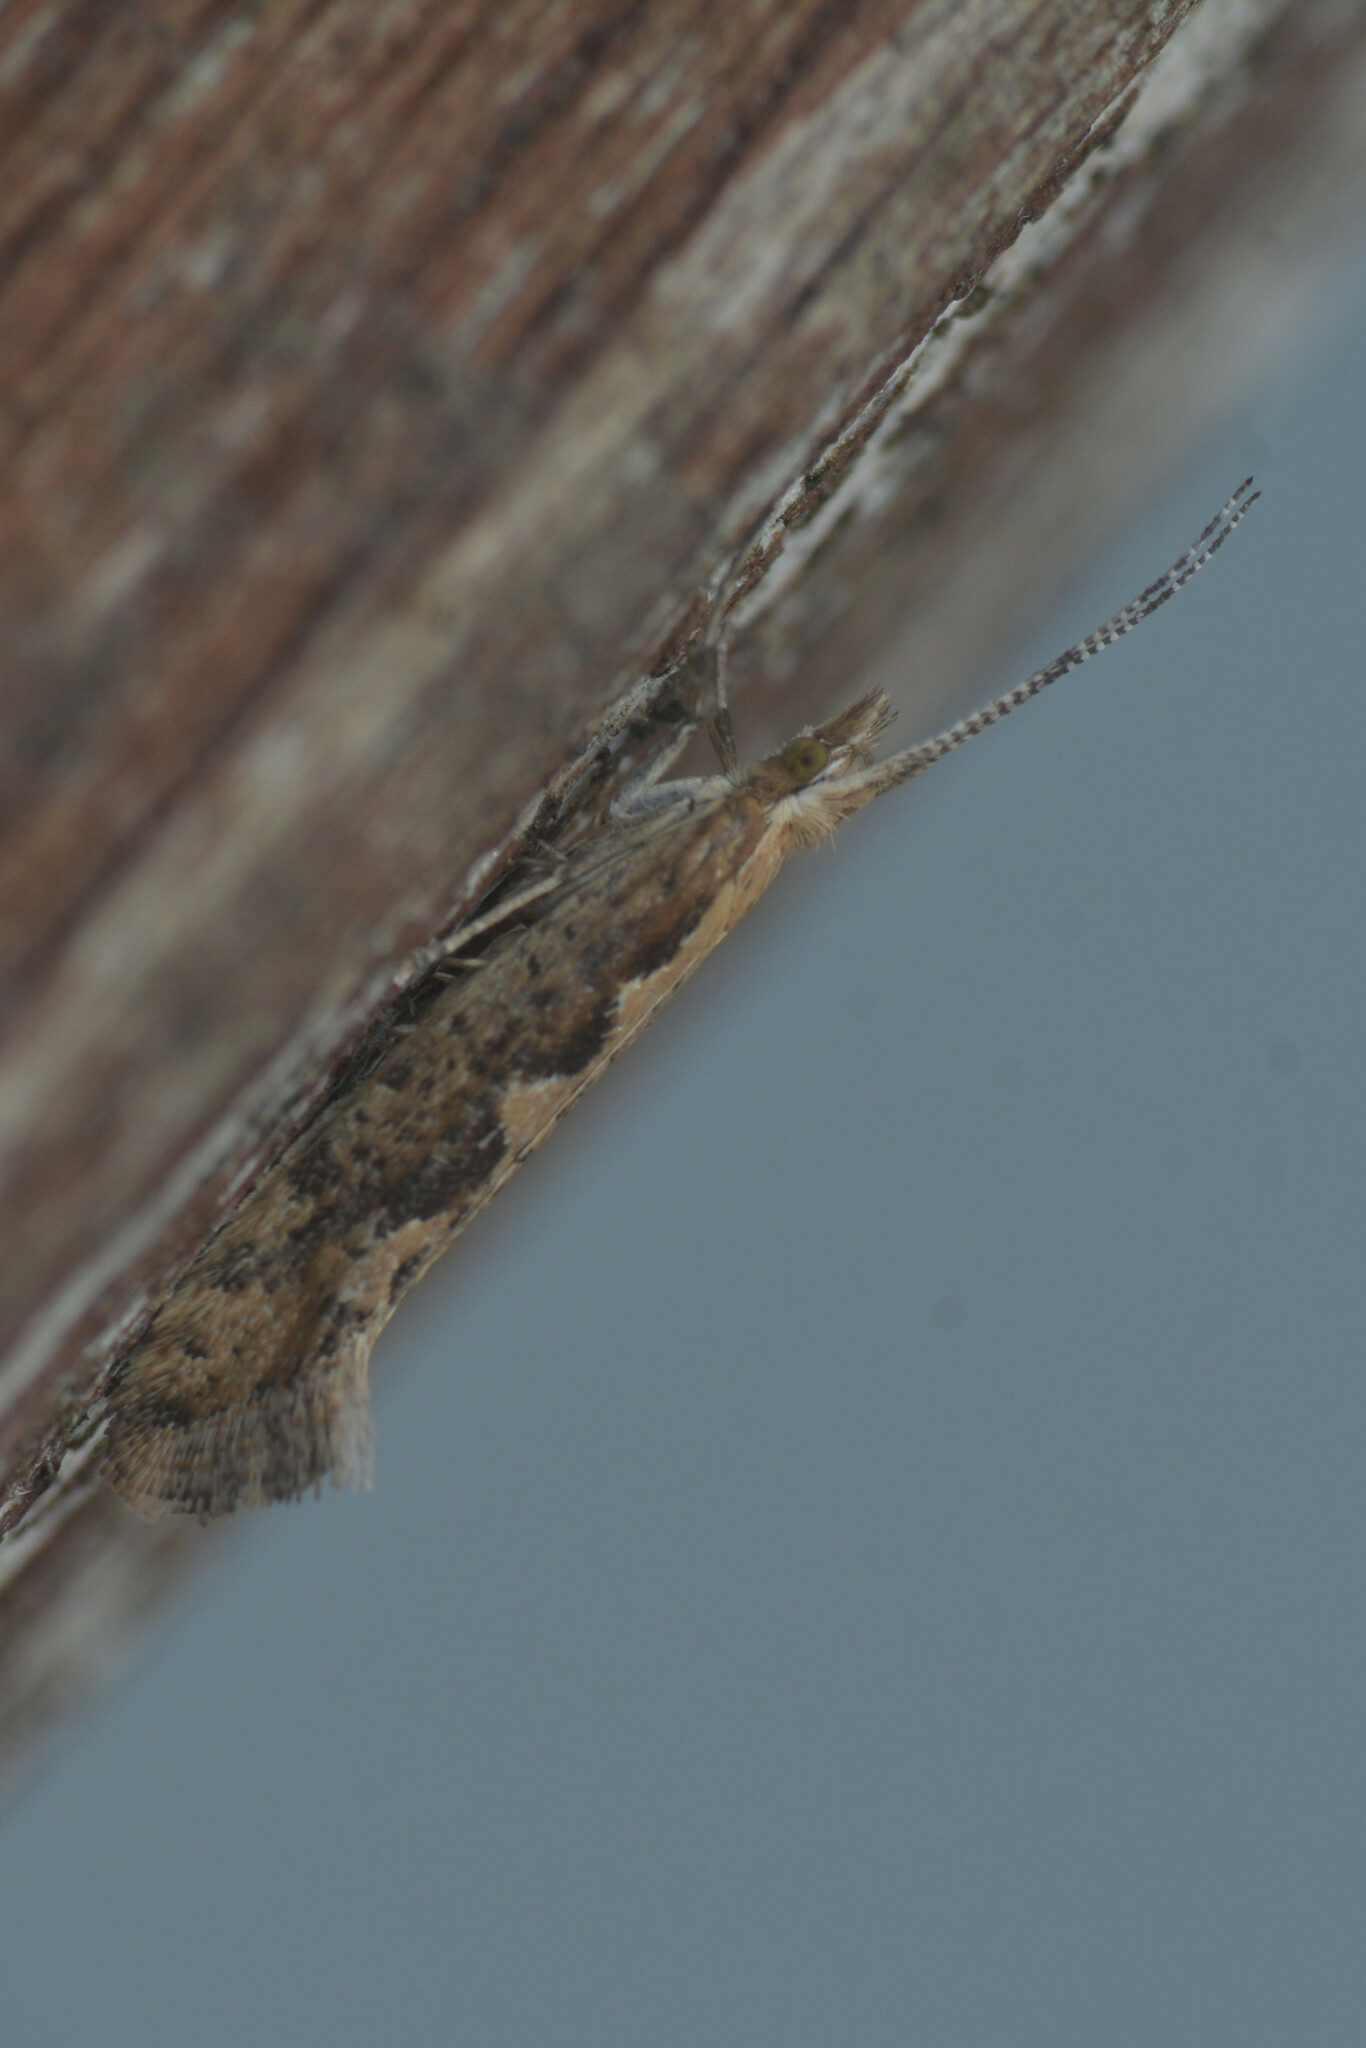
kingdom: Animalia
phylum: Arthropoda
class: Insecta
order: Lepidoptera
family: Plutellidae
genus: Plutella
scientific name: Plutella xylostella
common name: Diamond-back moth
